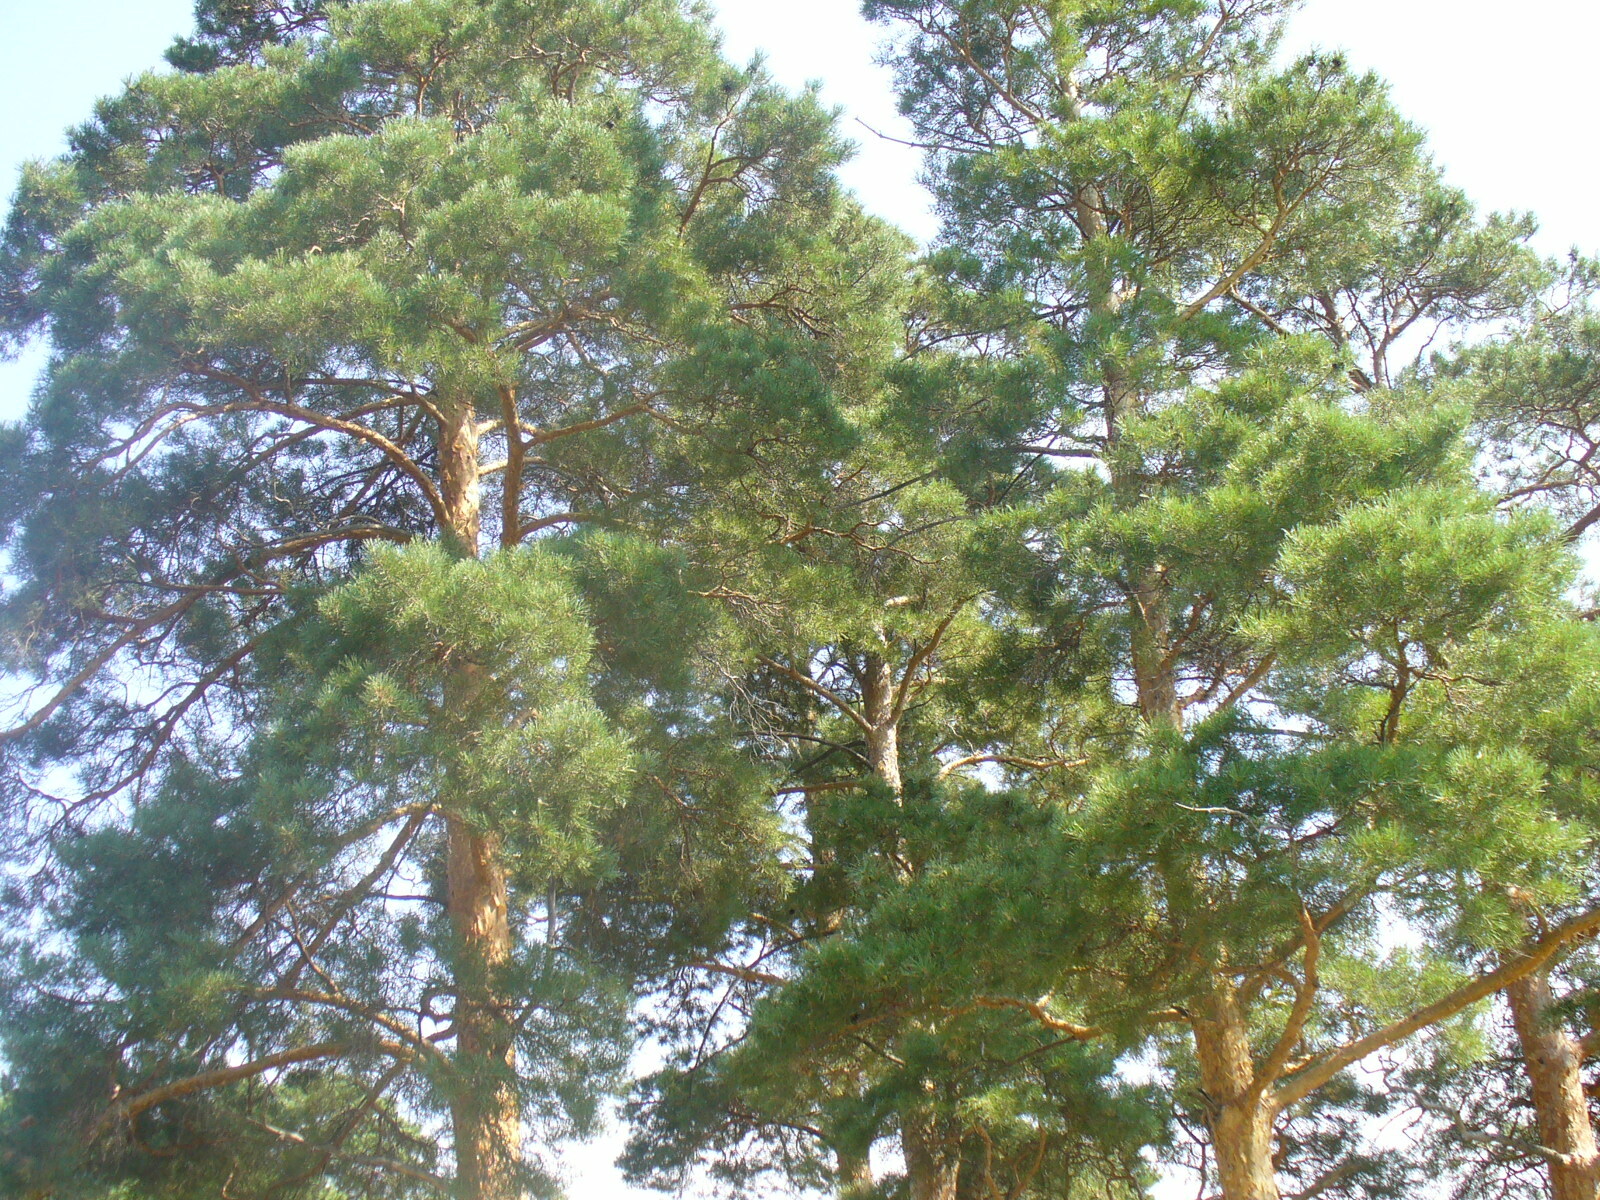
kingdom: Plantae
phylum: Tracheophyta
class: Pinopsida
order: Pinales
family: Pinaceae
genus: Pinus
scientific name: Pinus sylvestris
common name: Scots pine
